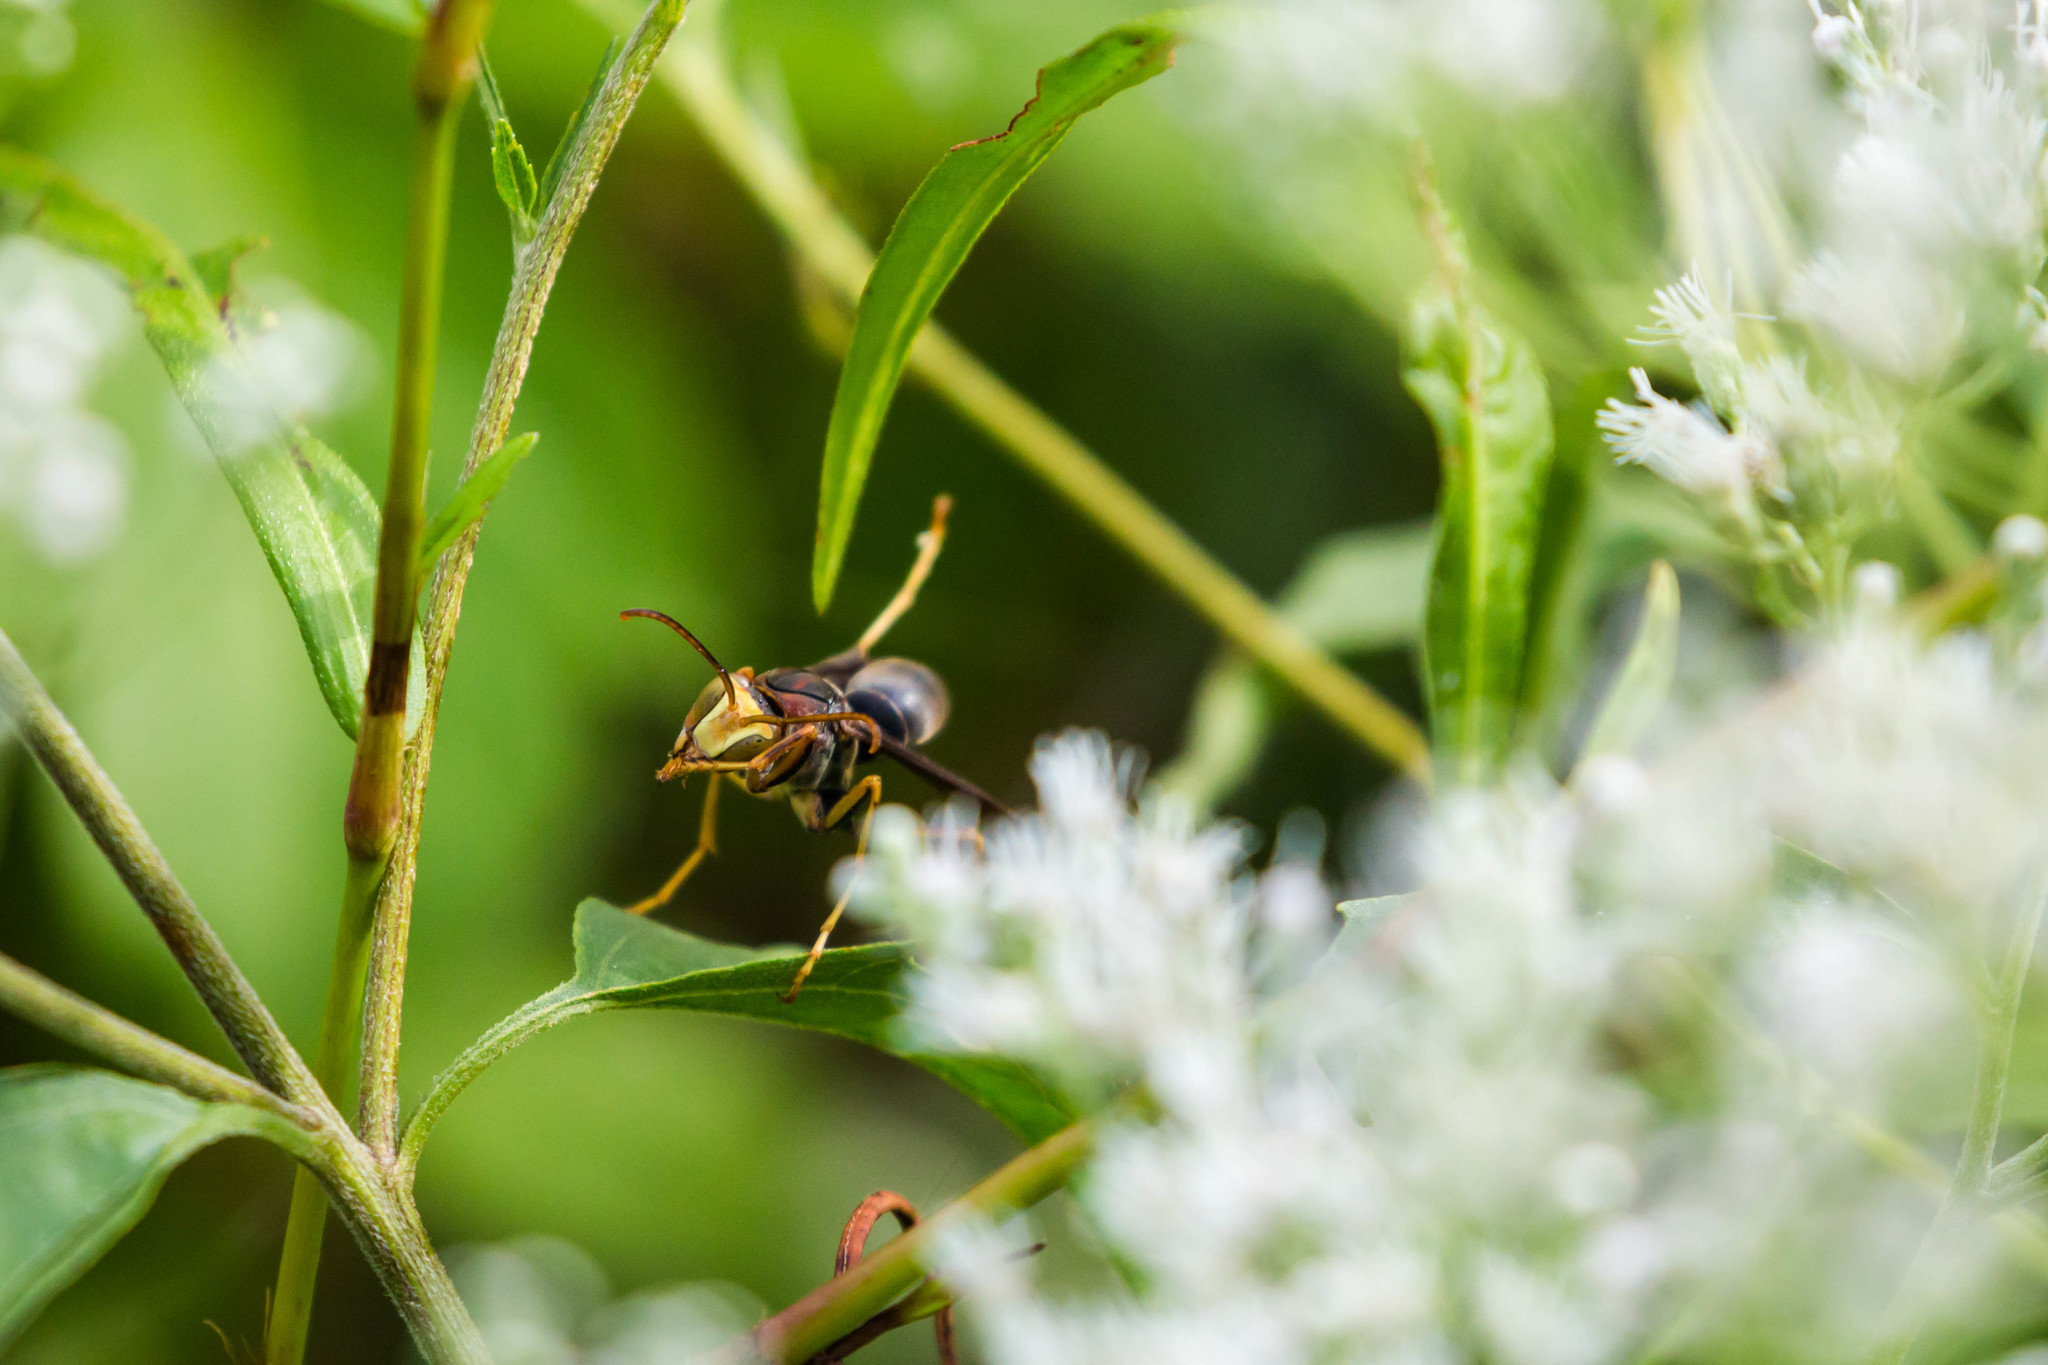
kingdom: Animalia
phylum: Arthropoda
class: Insecta
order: Hymenoptera
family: Eumenidae
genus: Polistes
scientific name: Polistes metricus
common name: Metric paper wasp
